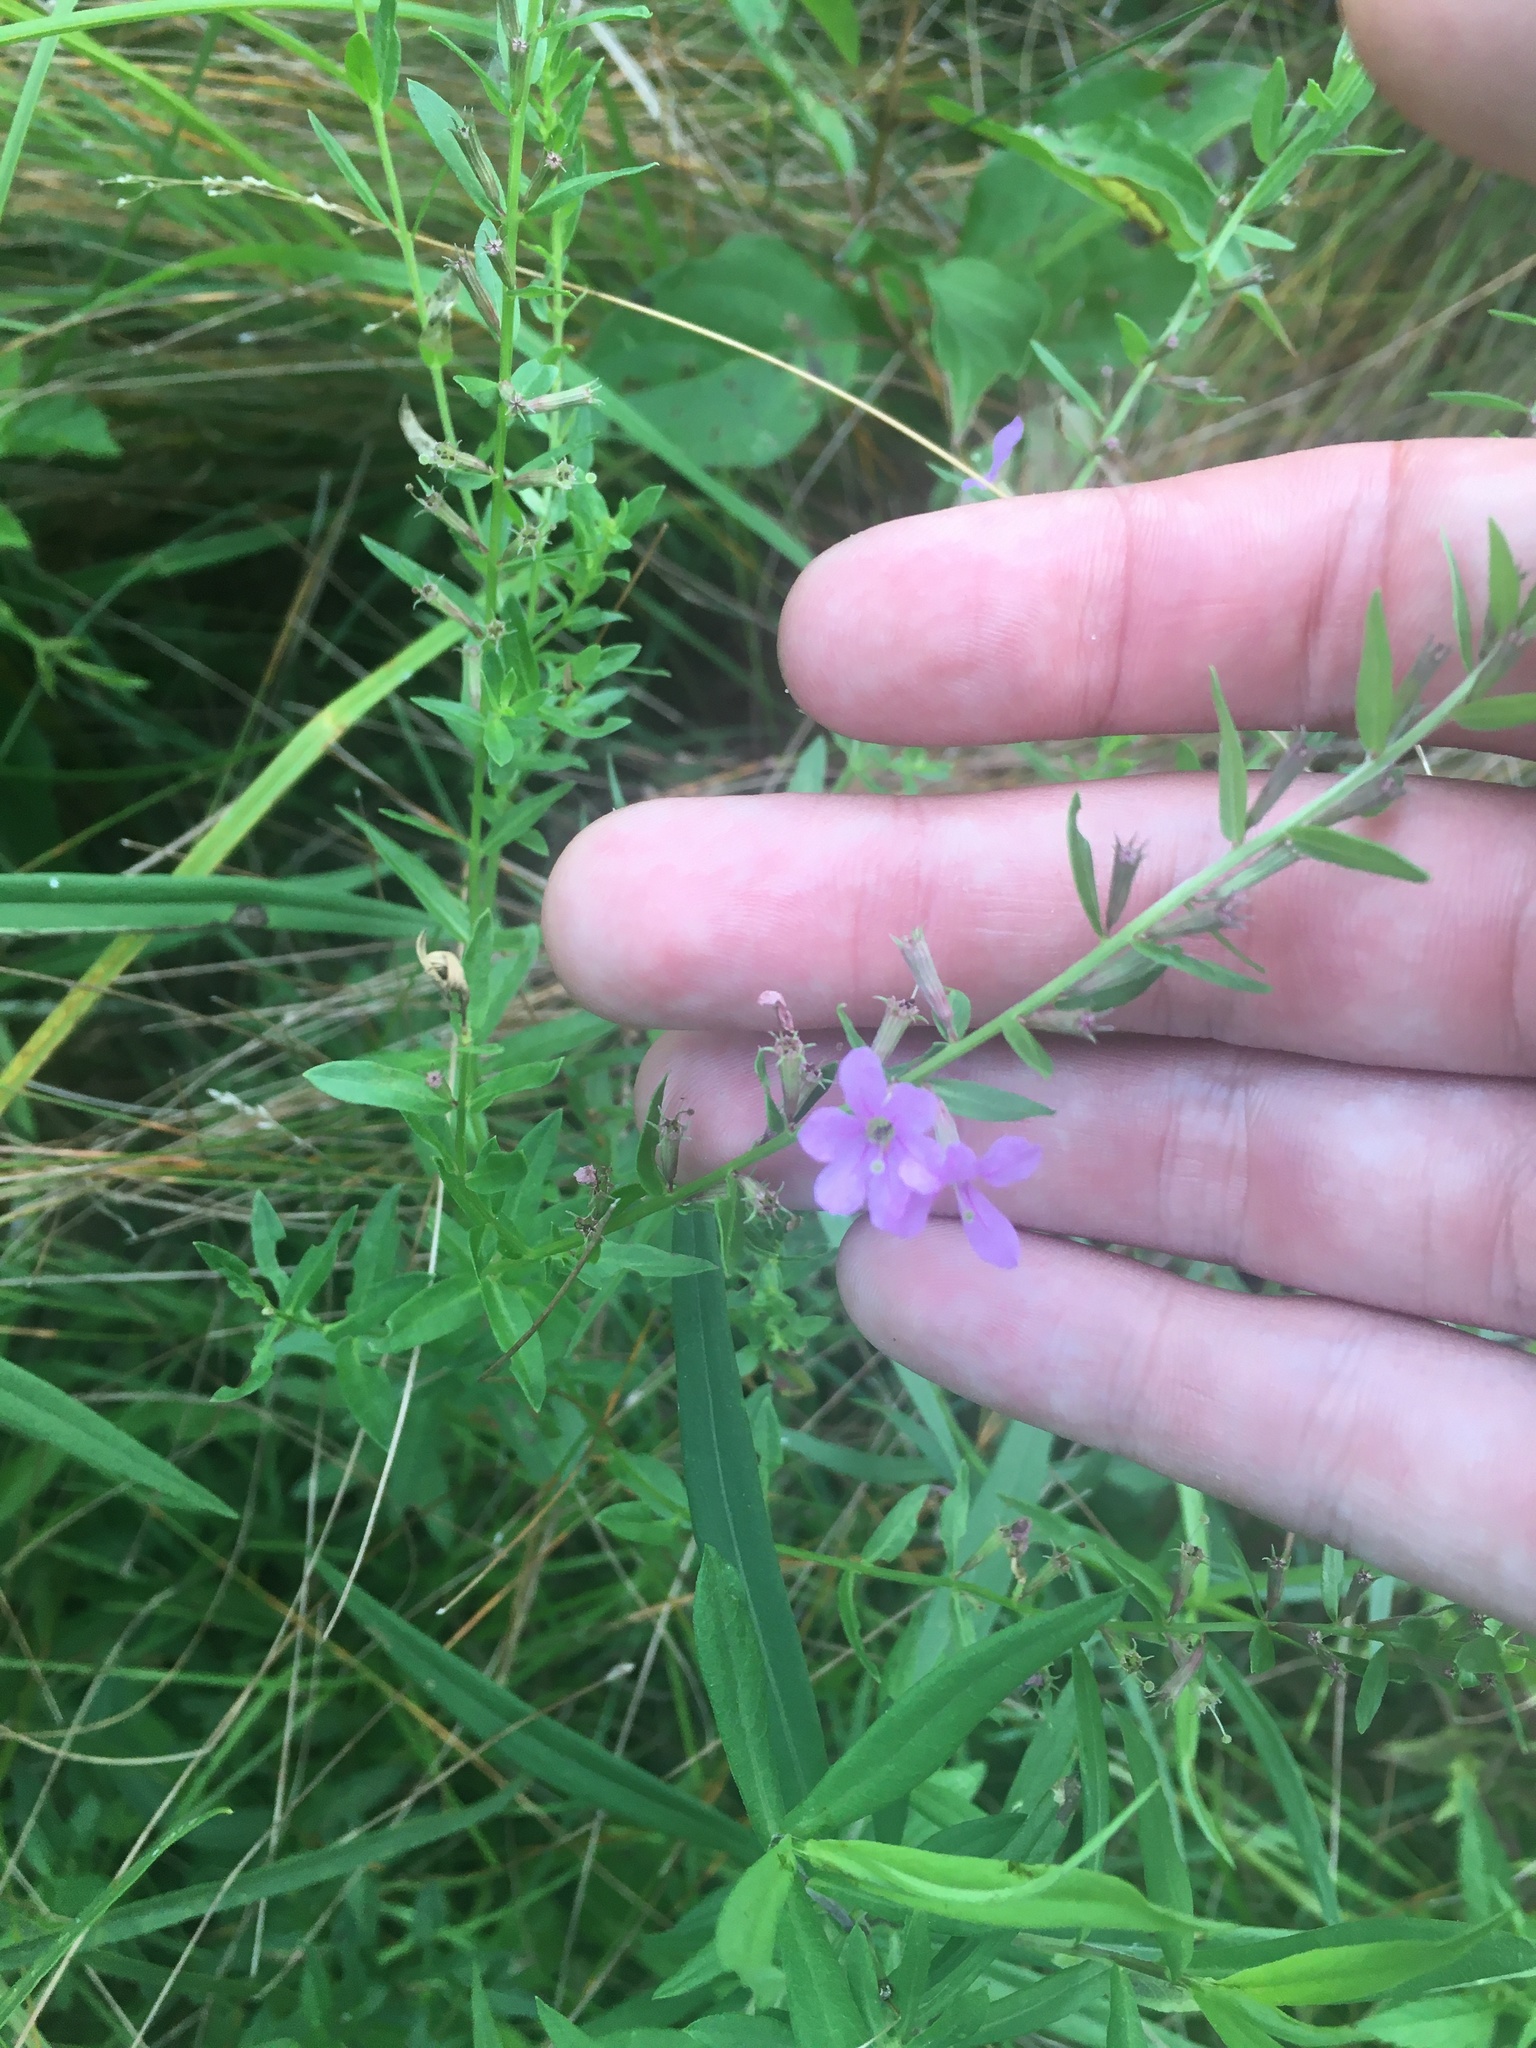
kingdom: Plantae
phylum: Tracheophyta
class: Magnoliopsida
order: Myrtales
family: Lythraceae
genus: Lythrum
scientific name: Lythrum alatum
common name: Winged loosestrife
